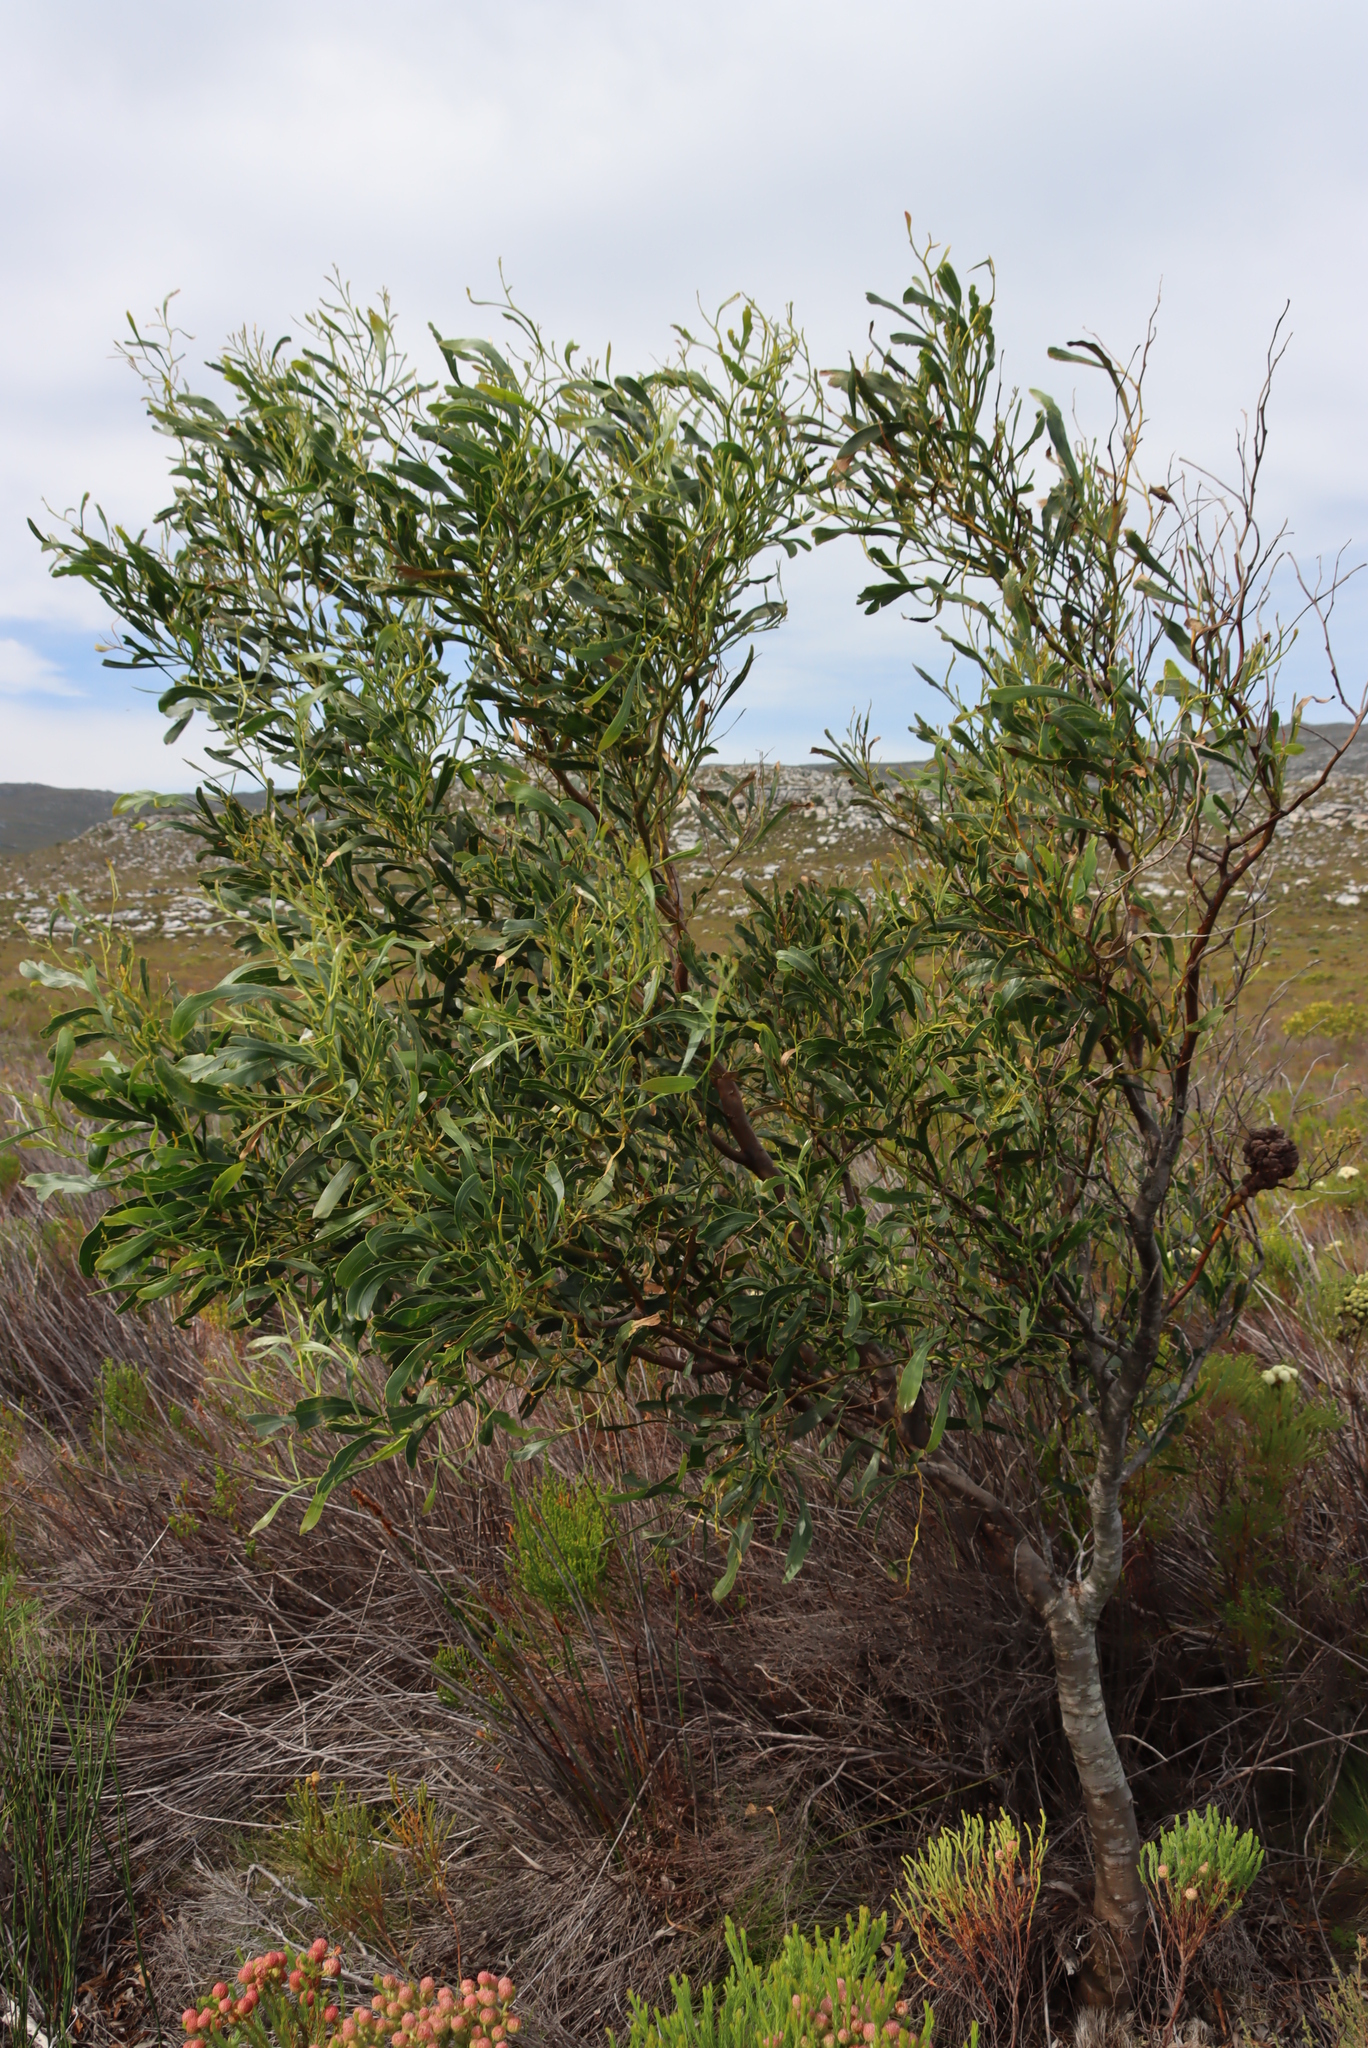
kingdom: Plantae
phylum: Tracheophyta
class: Magnoliopsida
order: Fabales
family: Fabaceae
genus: Acacia
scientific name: Acacia saligna
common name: Orange wattle
